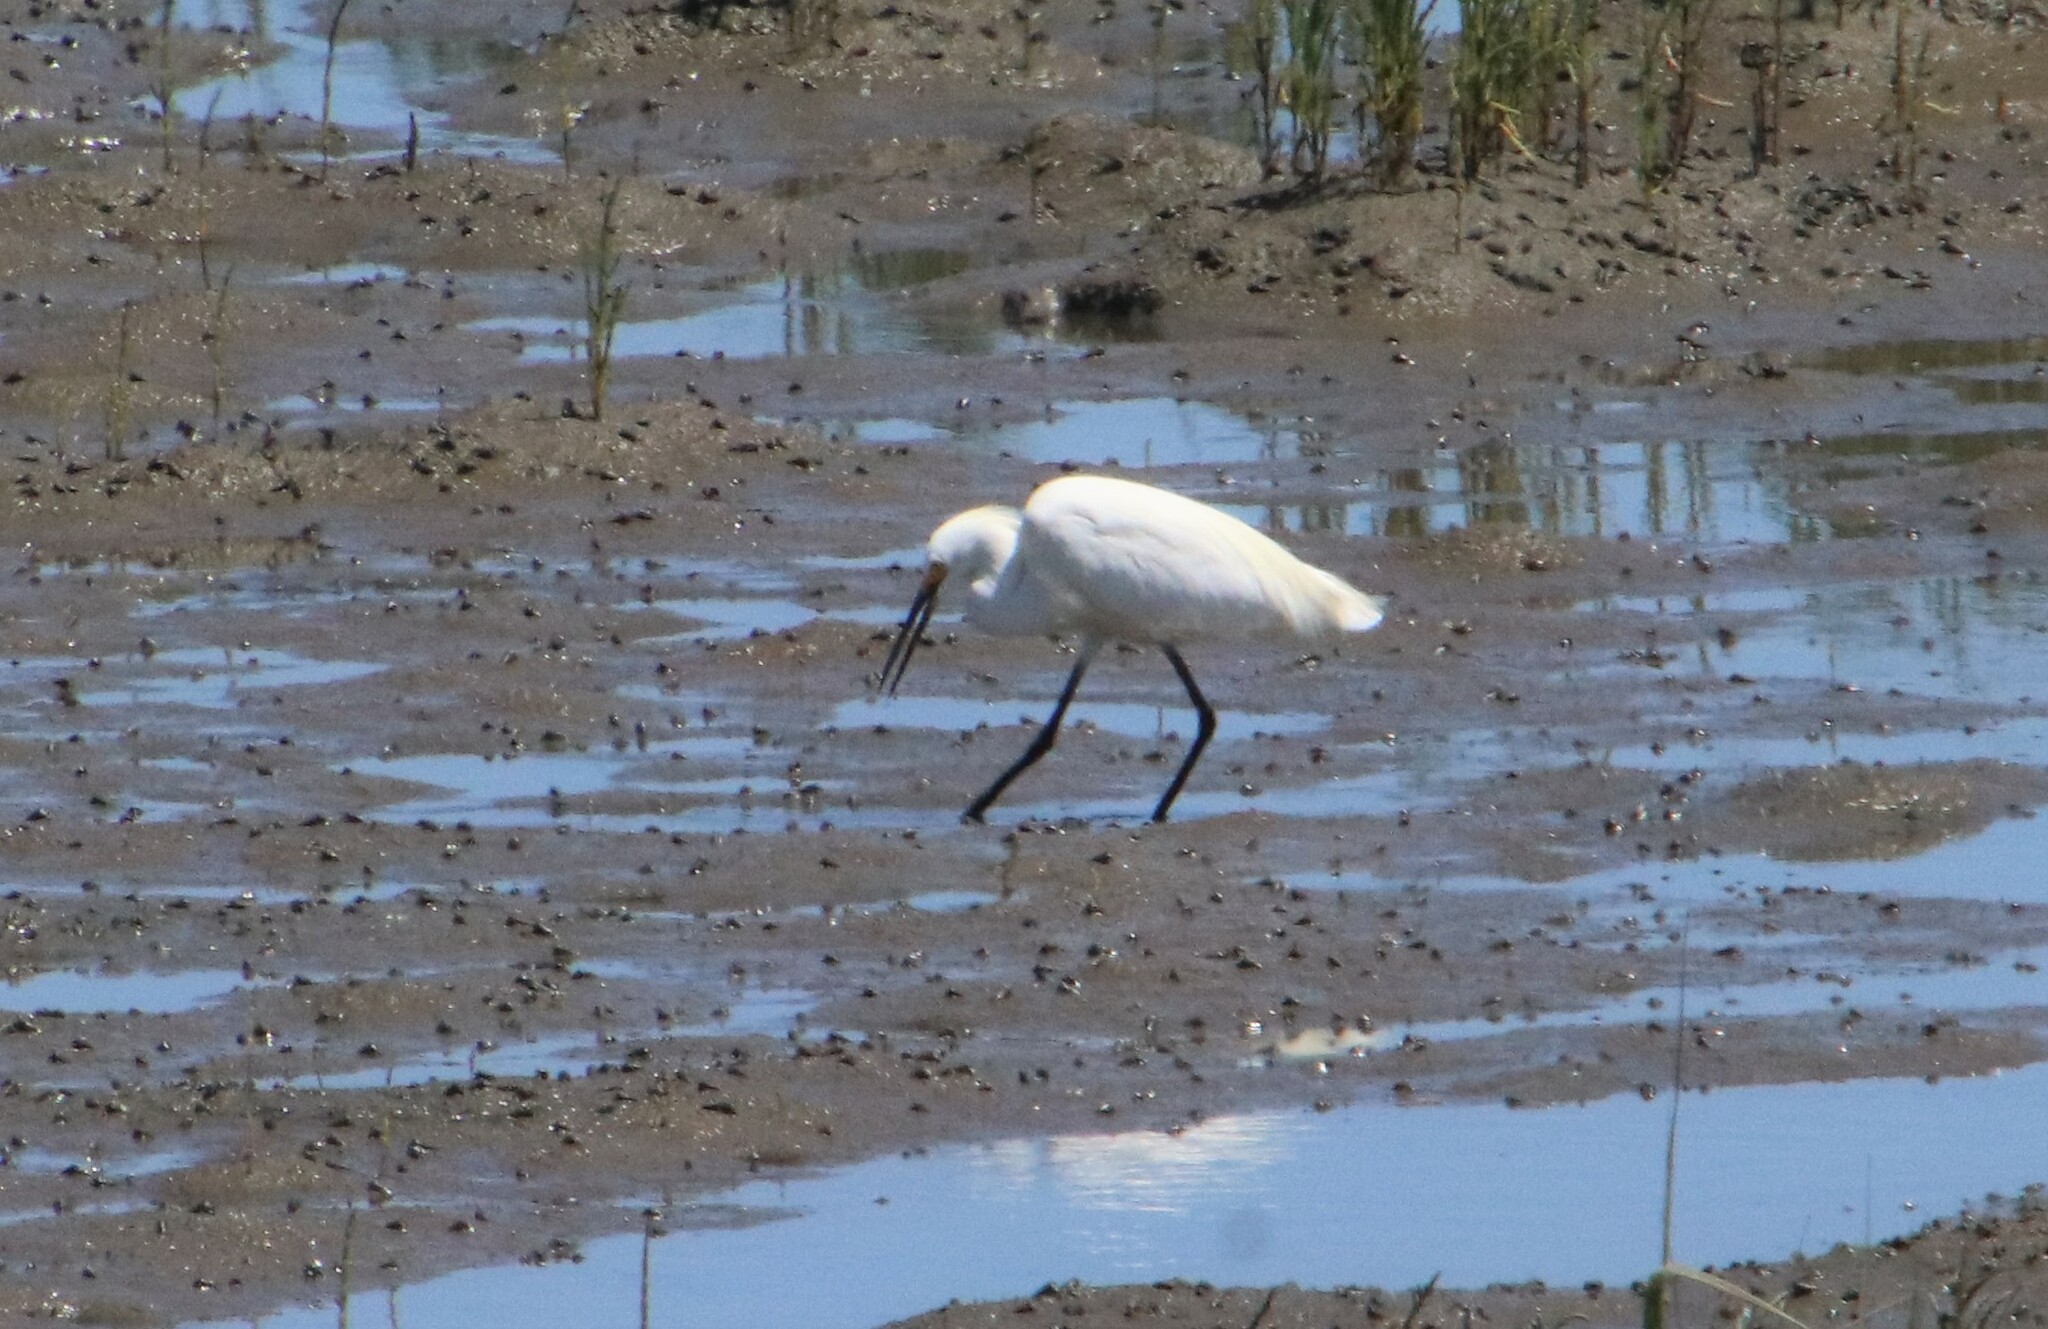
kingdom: Animalia
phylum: Chordata
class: Aves
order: Pelecaniformes
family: Ardeidae
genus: Egretta
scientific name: Egretta thula
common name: Snowy egret
